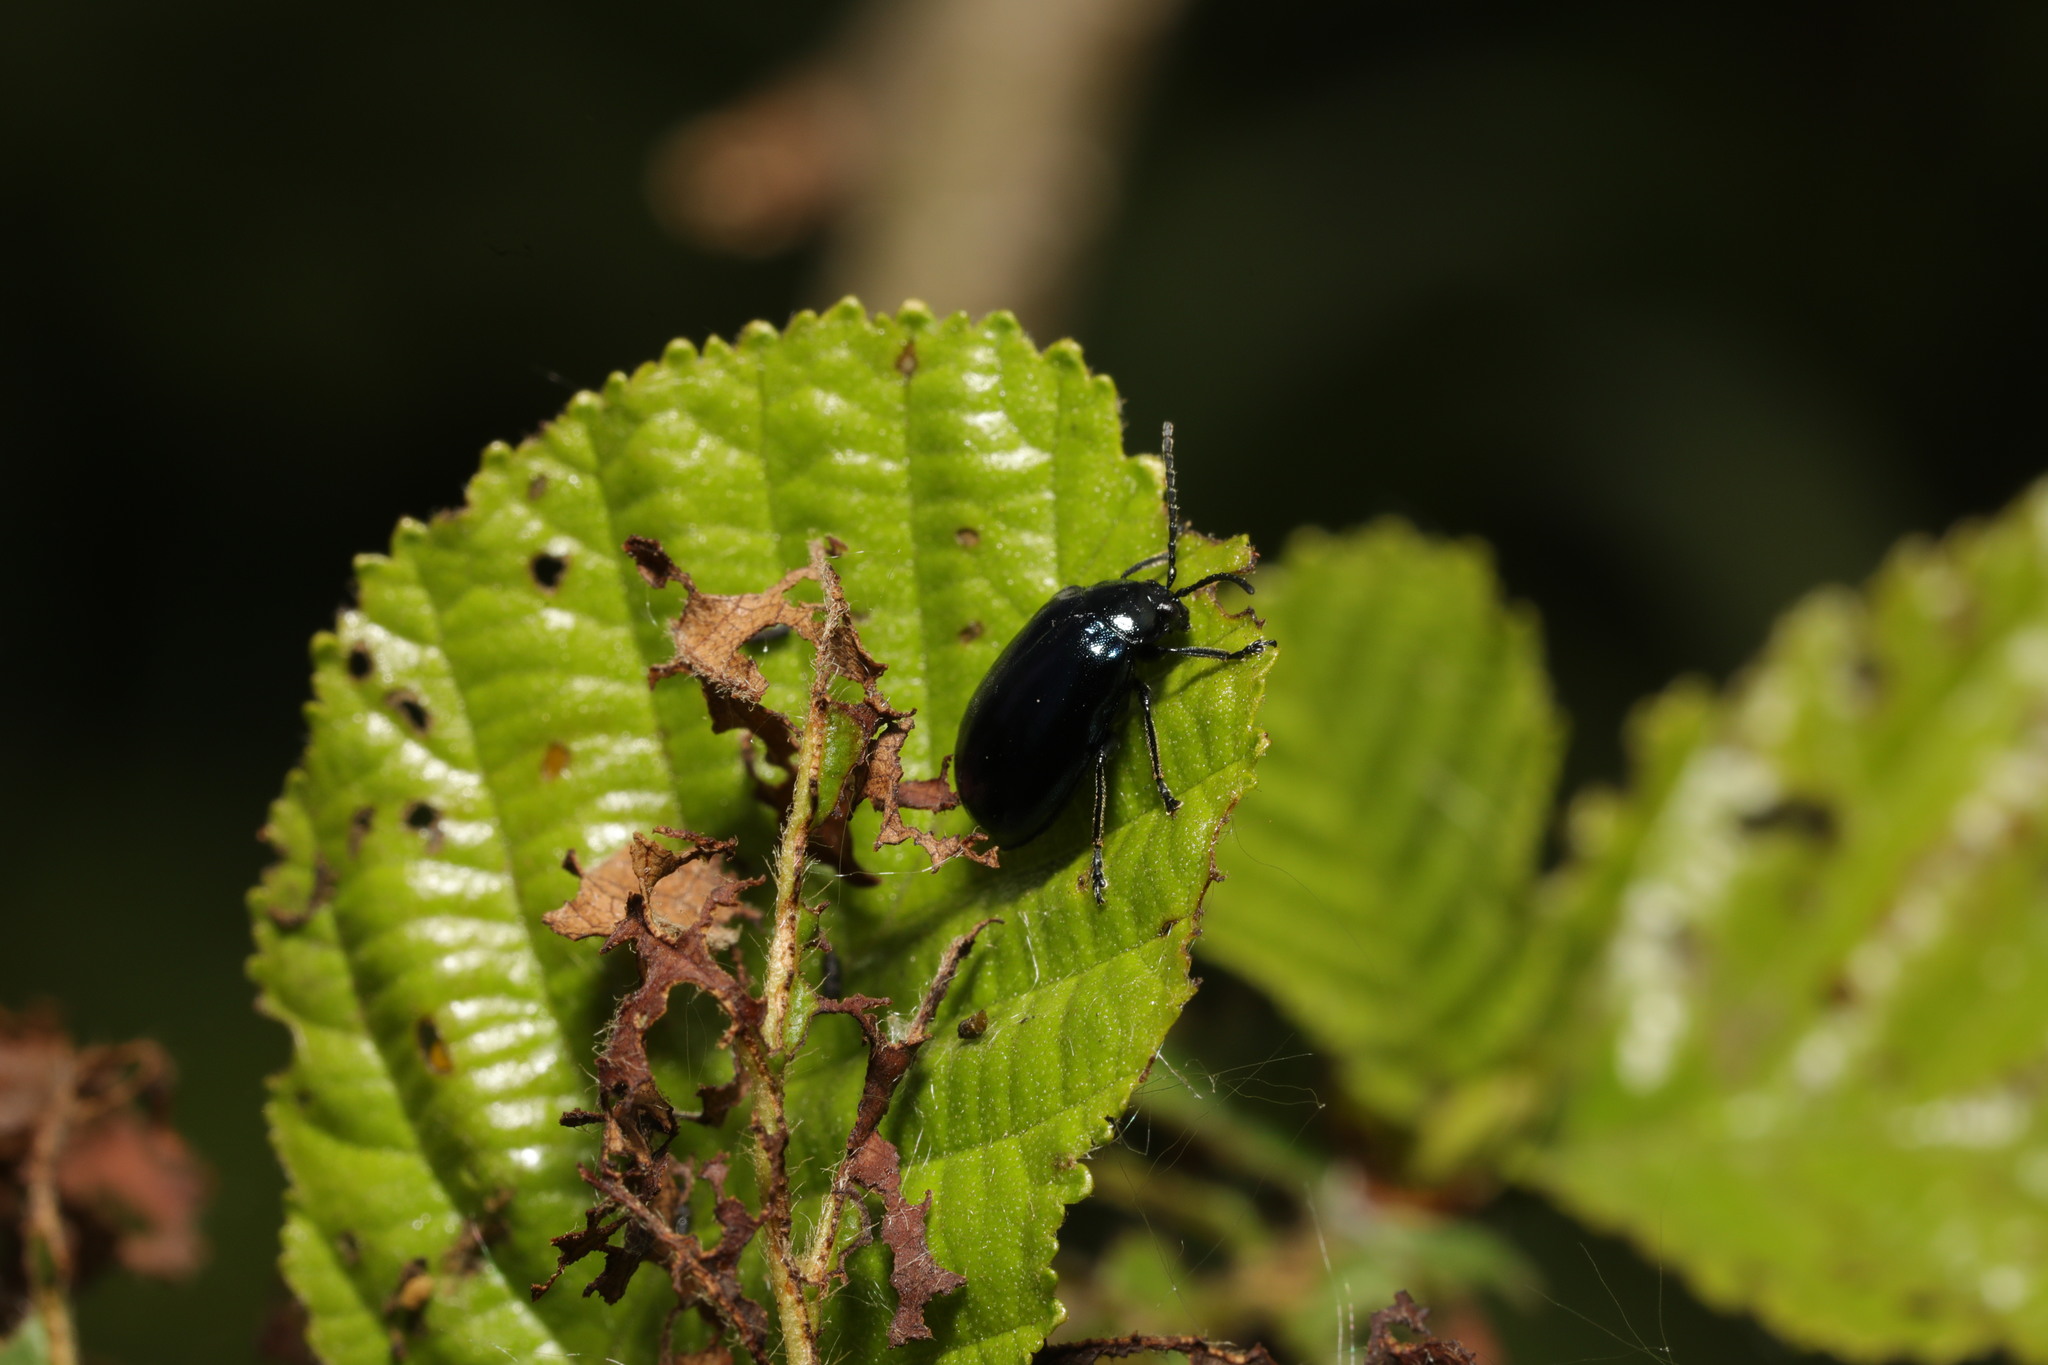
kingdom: Animalia
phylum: Arthropoda
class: Insecta
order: Coleoptera
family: Chrysomelidae
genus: Agelastica
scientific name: Agelastica alni
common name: Alder leaf beetle
